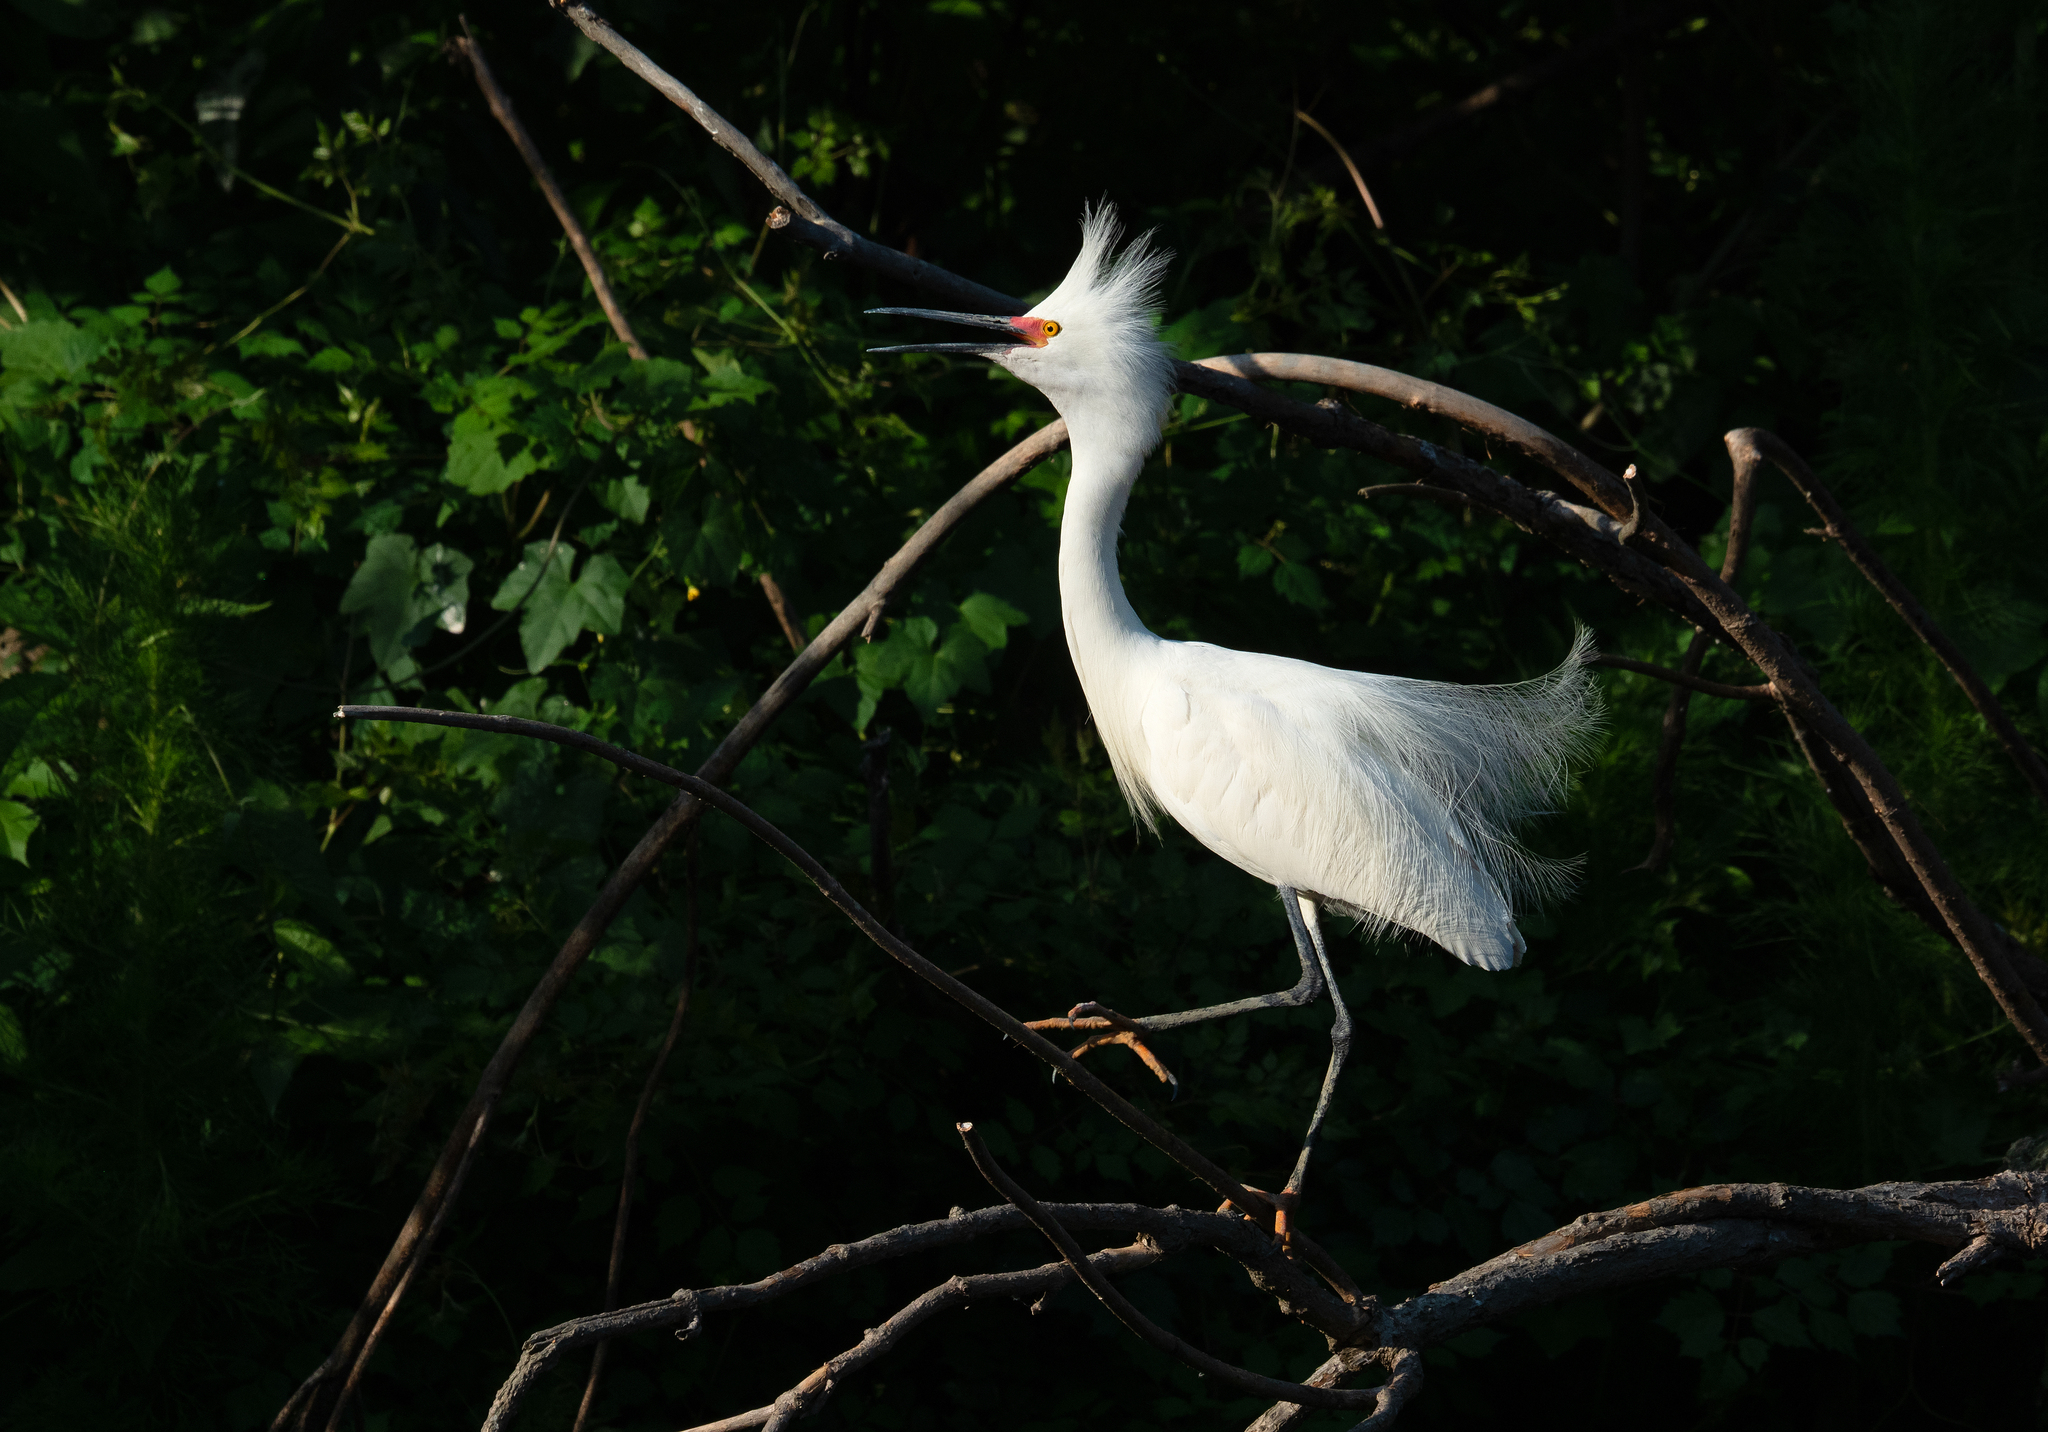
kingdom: Animalia
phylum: Chordata
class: Aves
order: Pelecaniformes
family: Ardeidae
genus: Egretta
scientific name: Egretta thula
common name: Snowy egret
